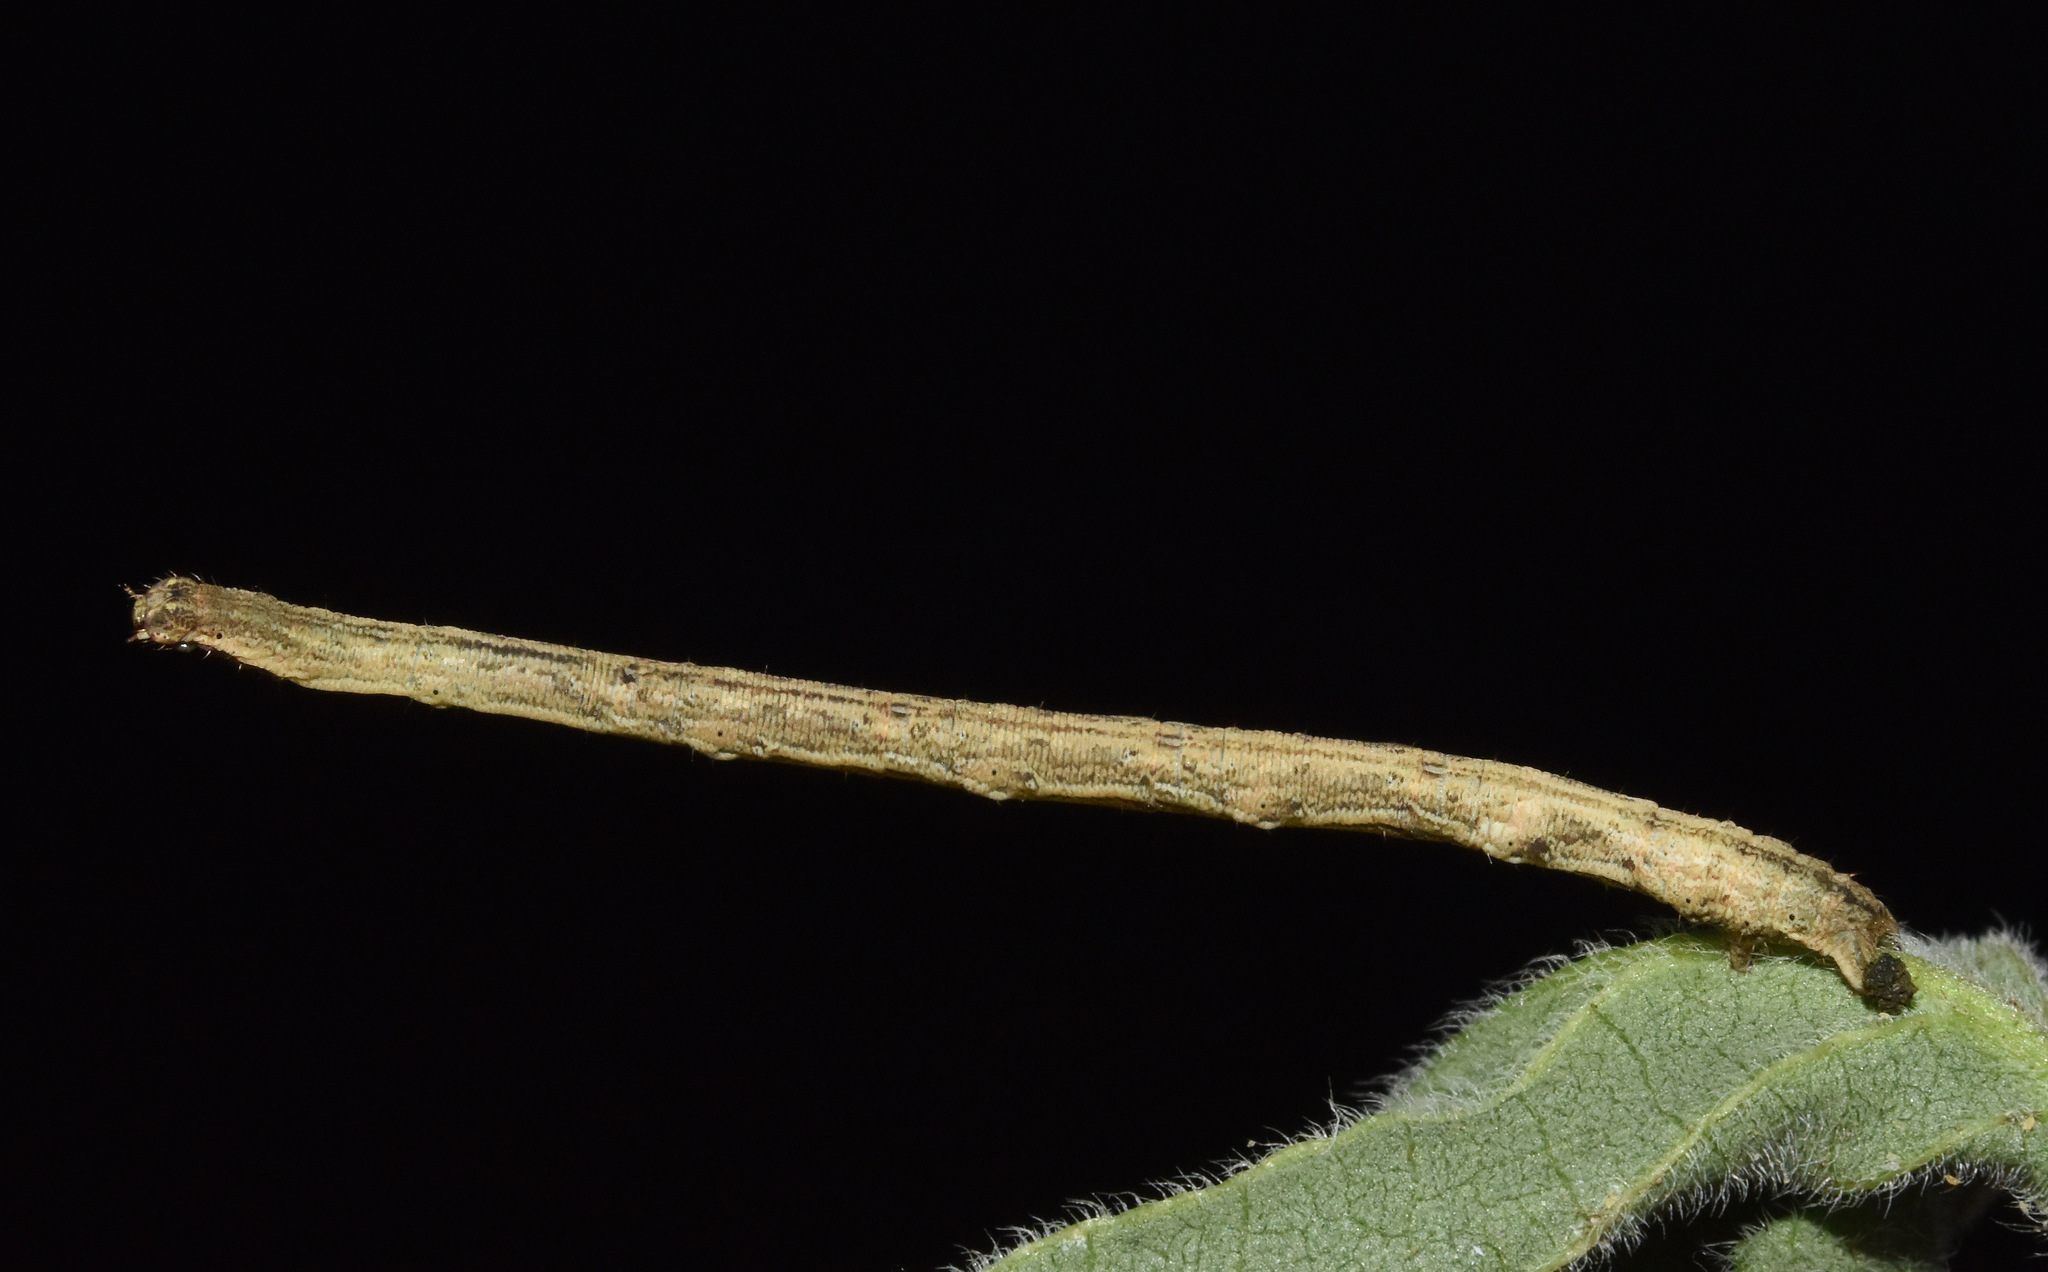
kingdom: Animalia
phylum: Arthropoda
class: Insecta
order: Lepidoptera
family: Geometridae
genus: Scopula
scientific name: Scopula internata
